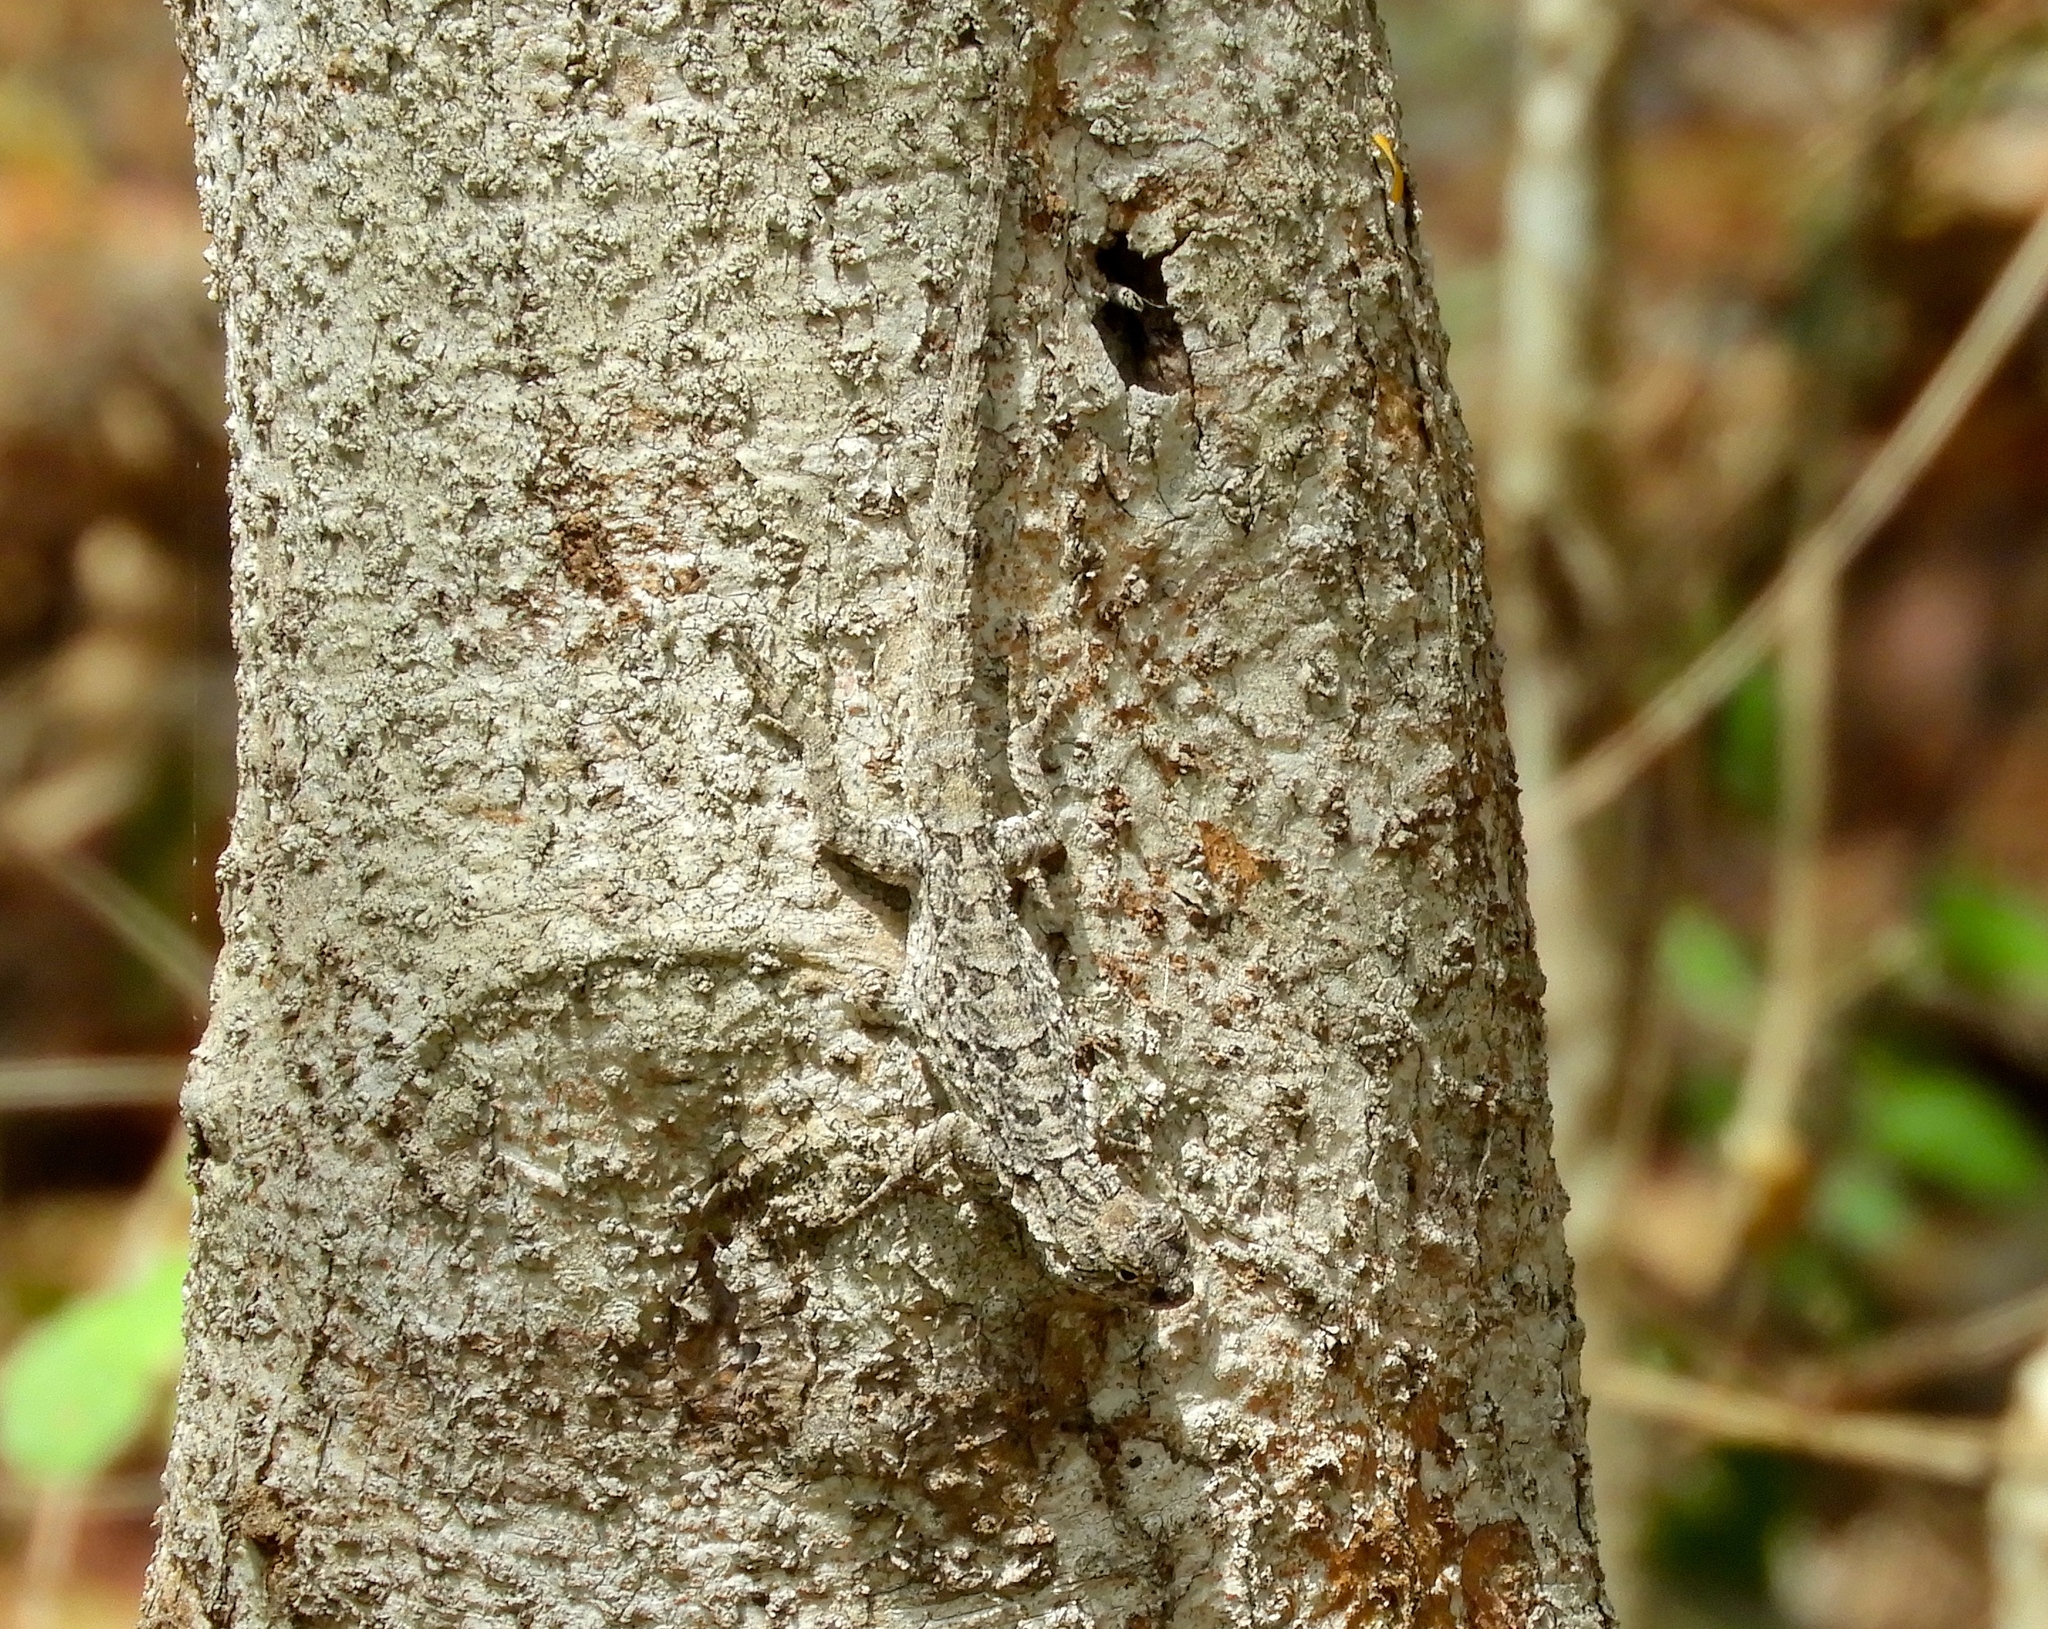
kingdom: Animalia
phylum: Chordata
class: Squamata
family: Phrynosomatidae
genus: Urosaurus
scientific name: Urosaurus bicarinatus
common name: Tropical tree lizard
